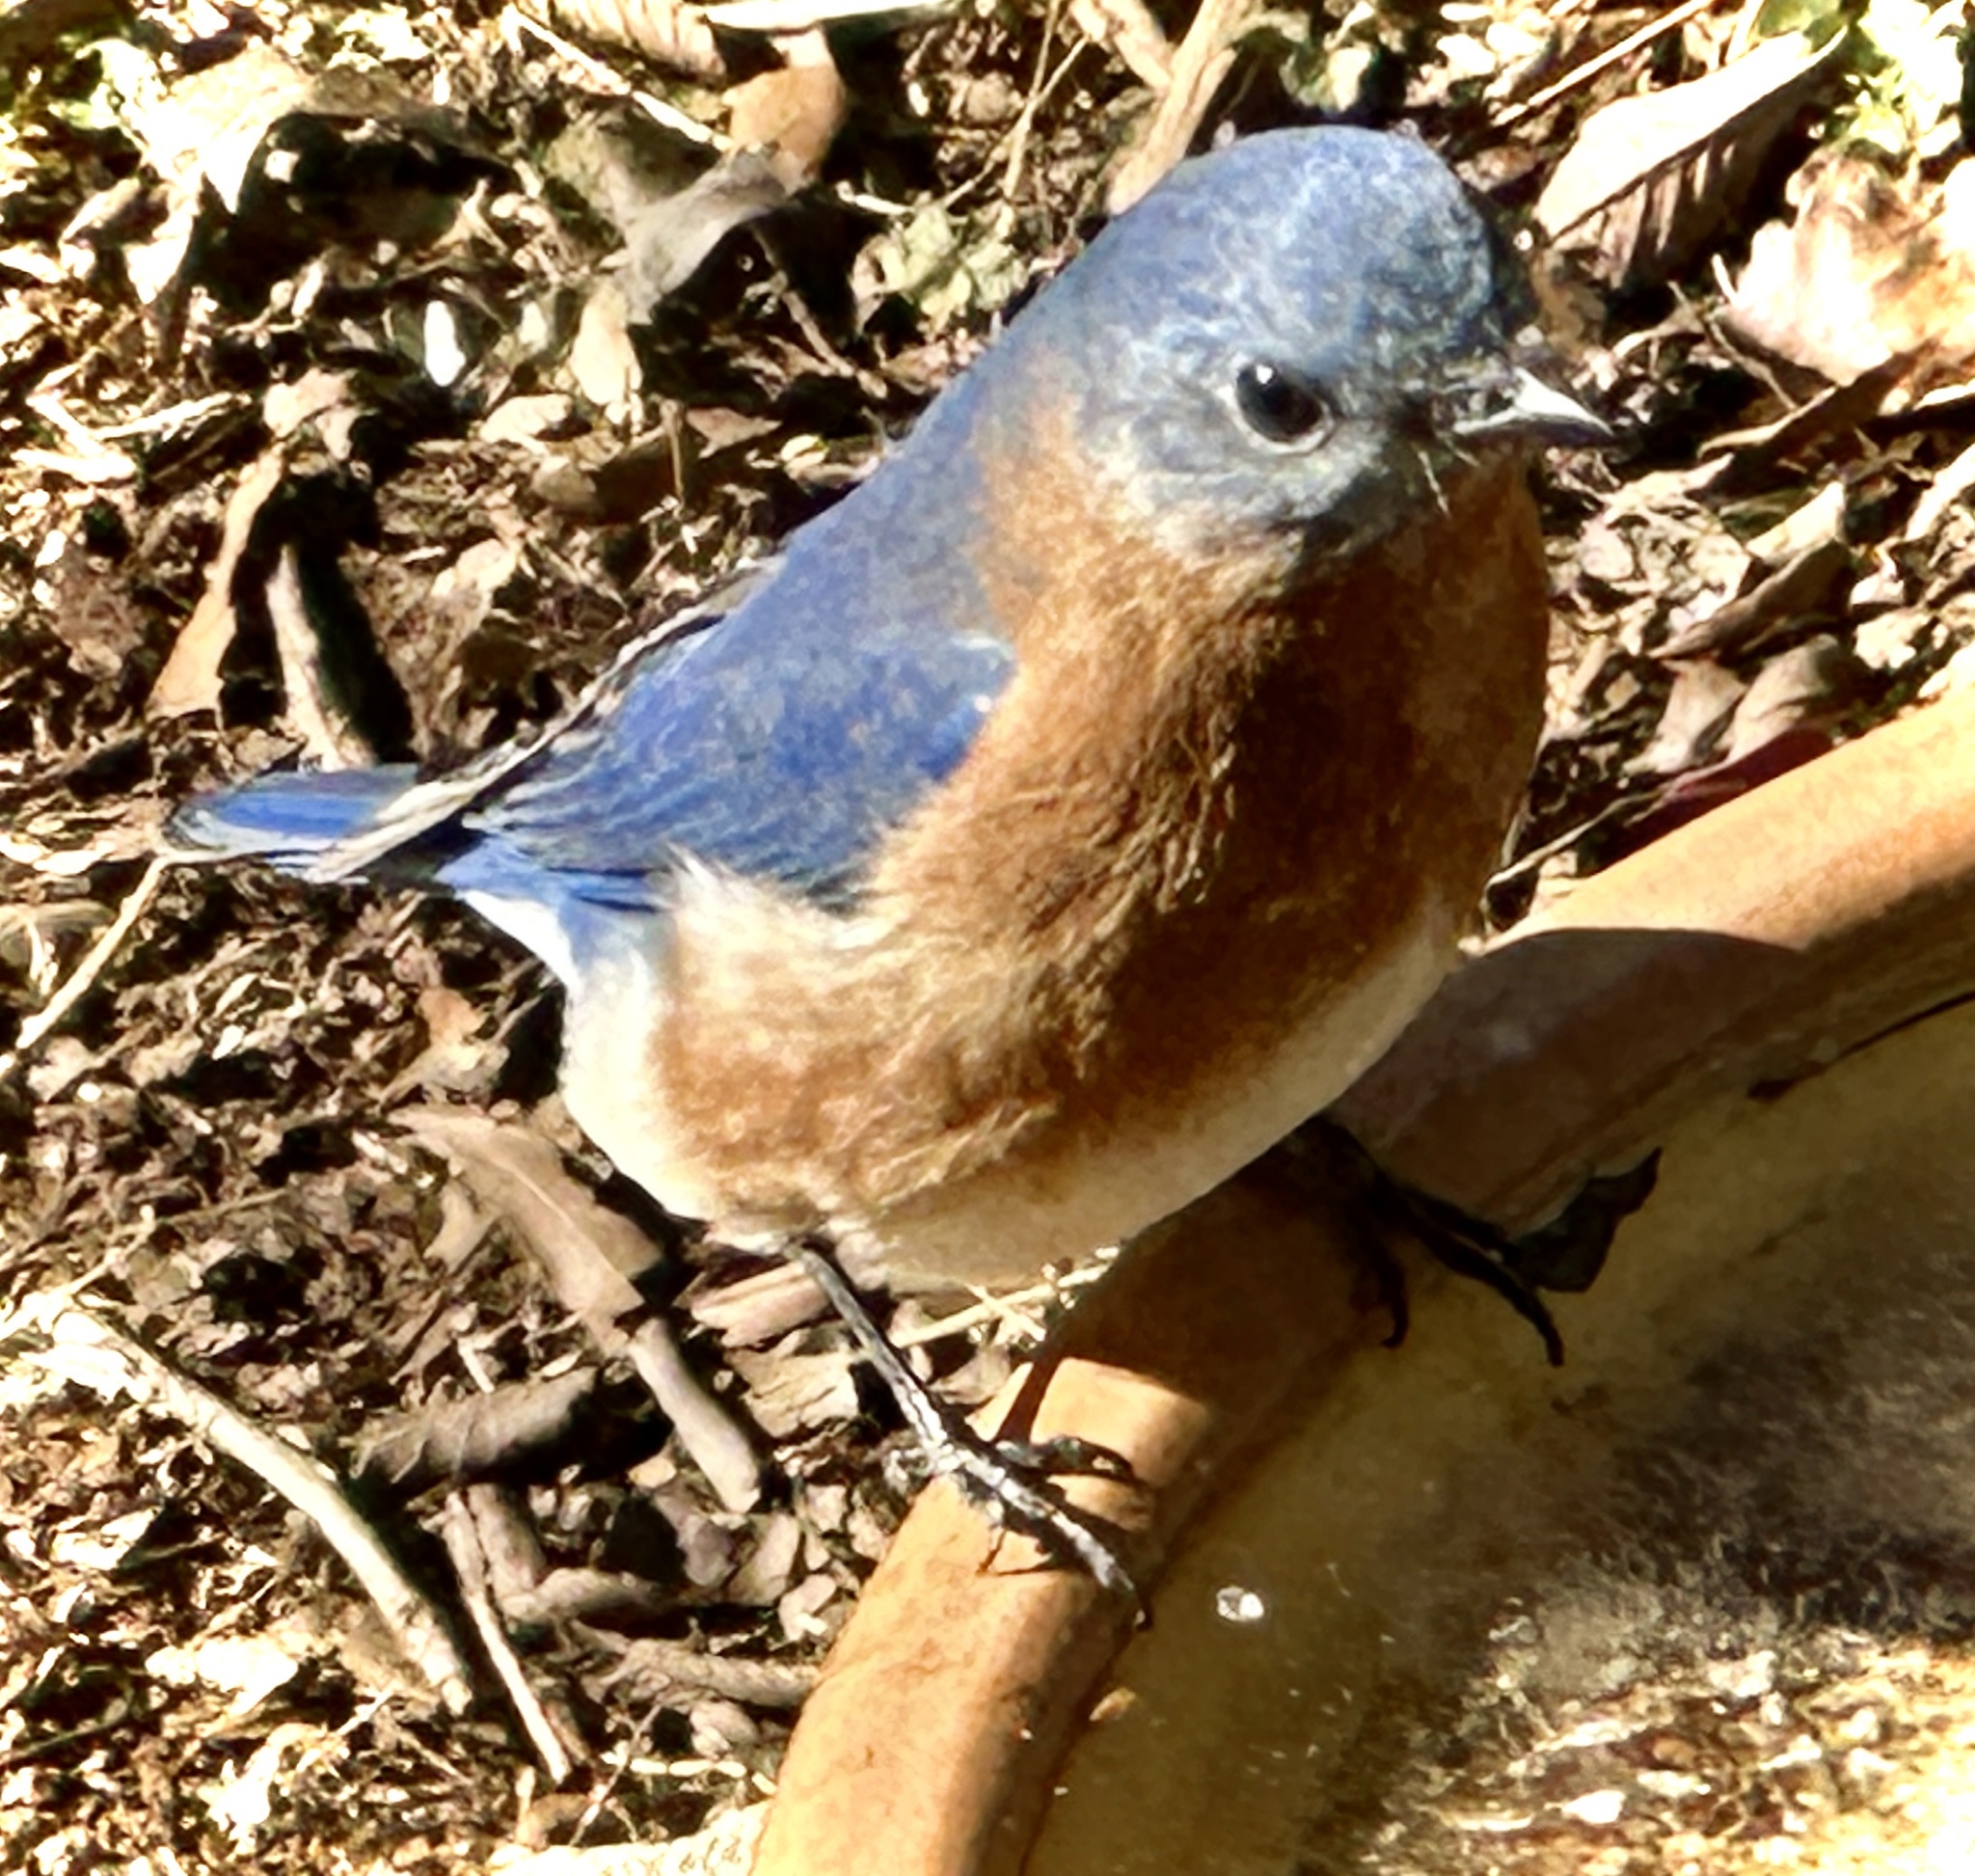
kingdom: Animalia
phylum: Chordata
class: Aves
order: Passeriformes
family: Turdidae
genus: Sialia
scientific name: Sialia sialis
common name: Eastern bluebird
